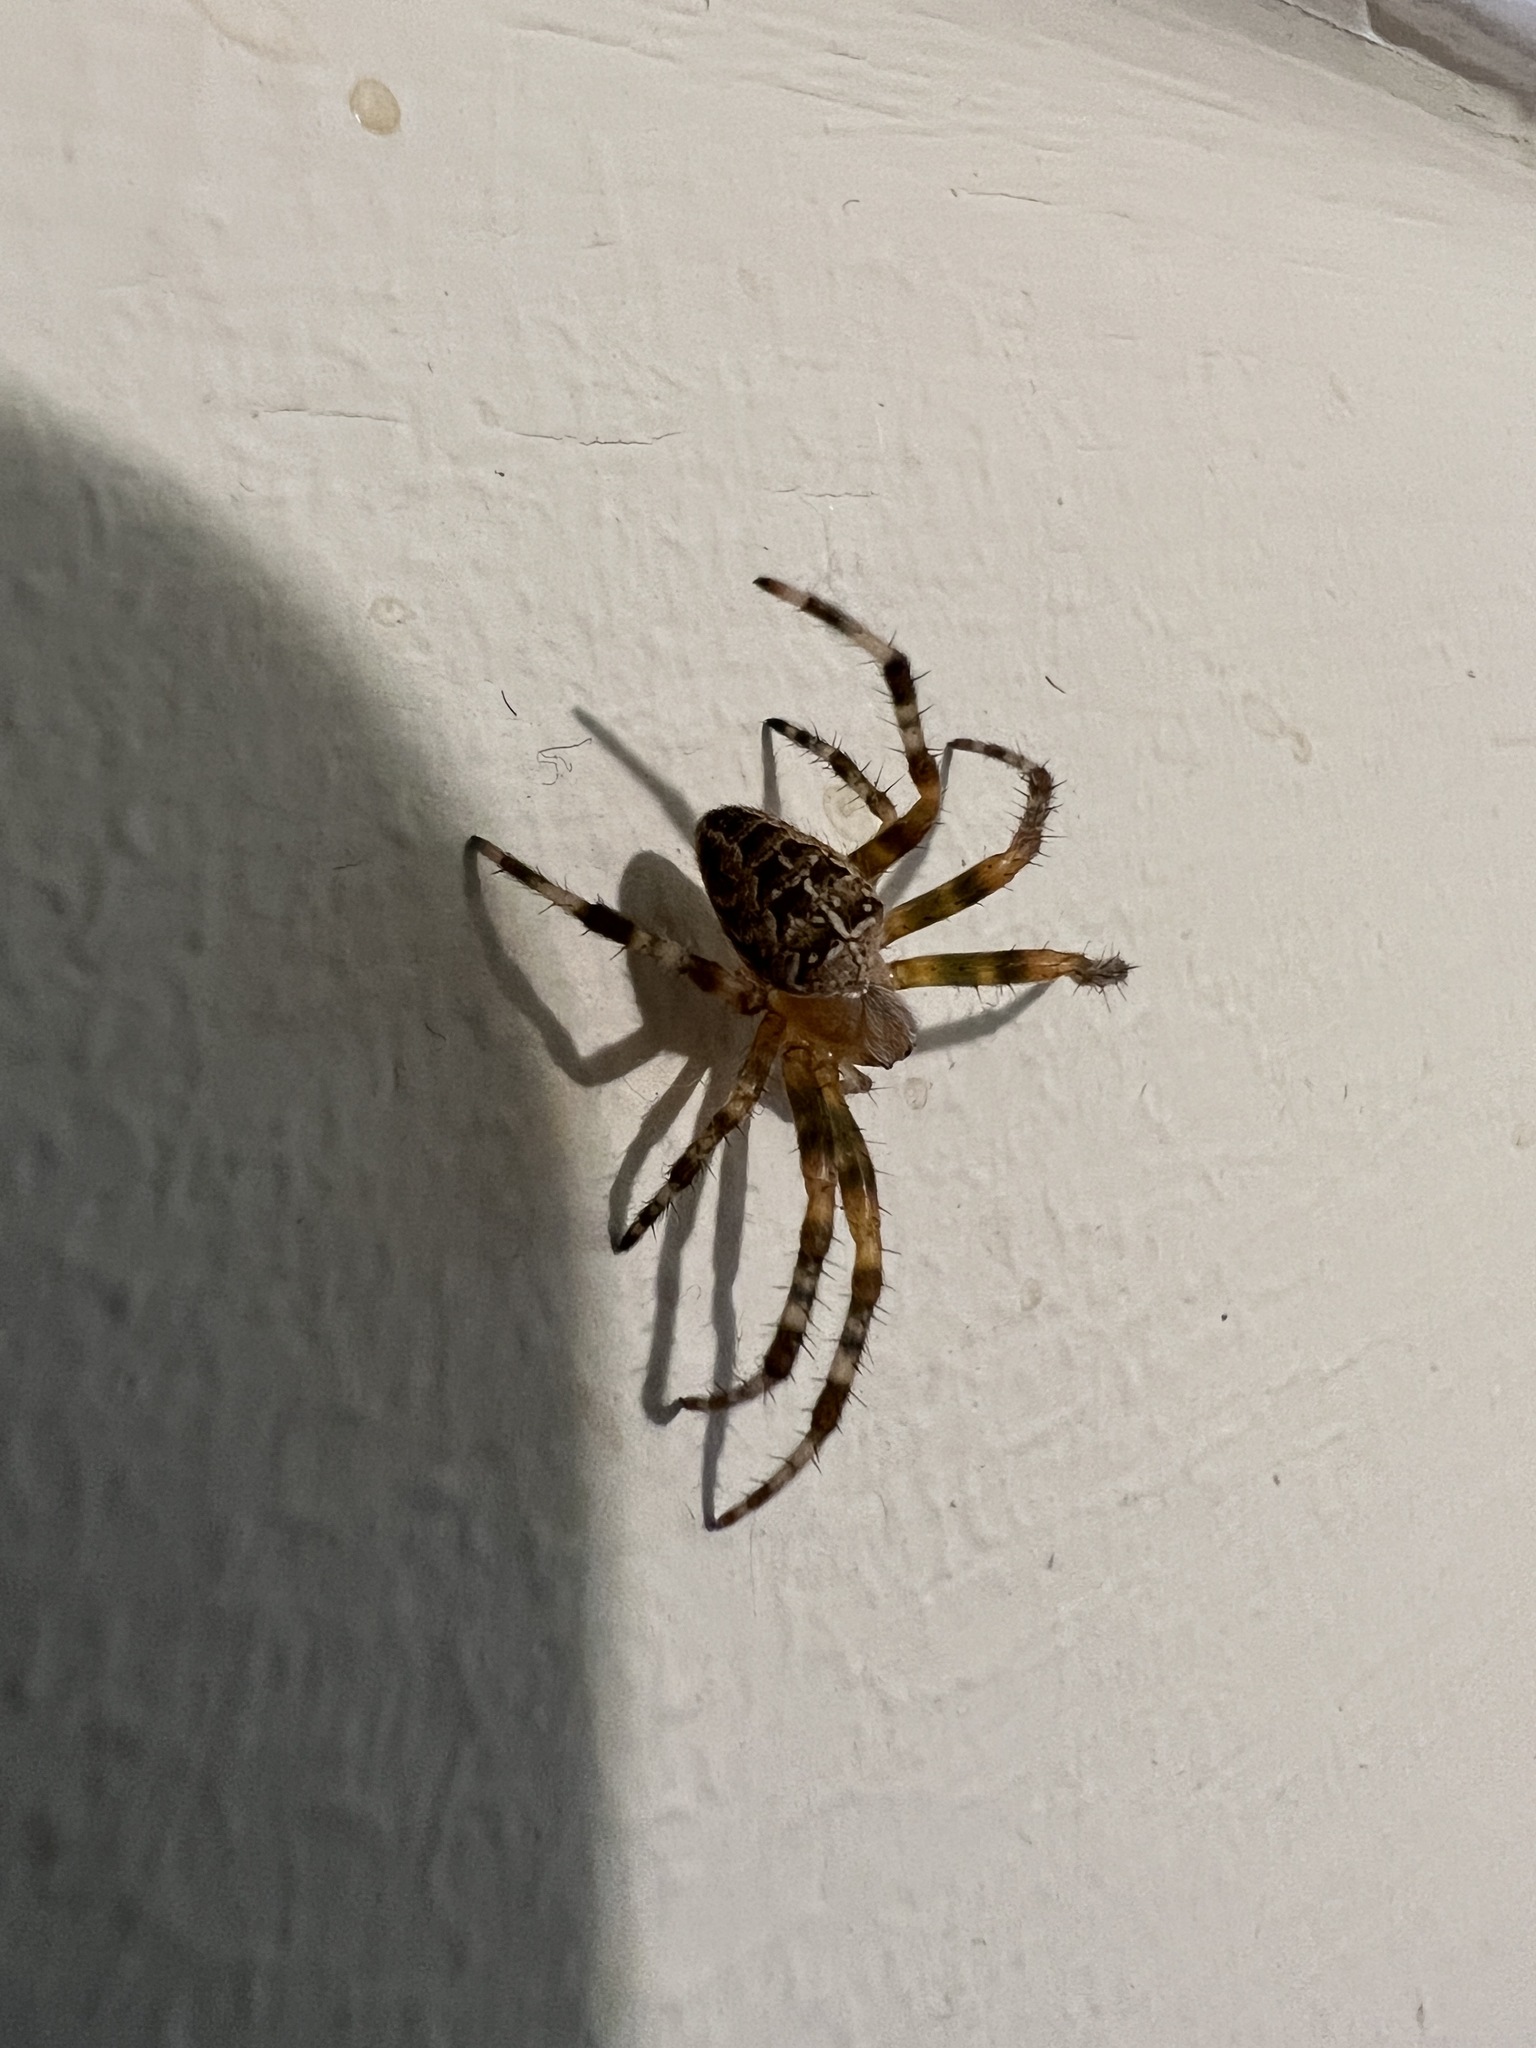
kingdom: Animalia
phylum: Arthropoda
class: Arachnida
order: Araneae
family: Araneidae
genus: Araneus
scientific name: Araneus diadematus
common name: Cross orbweaver
